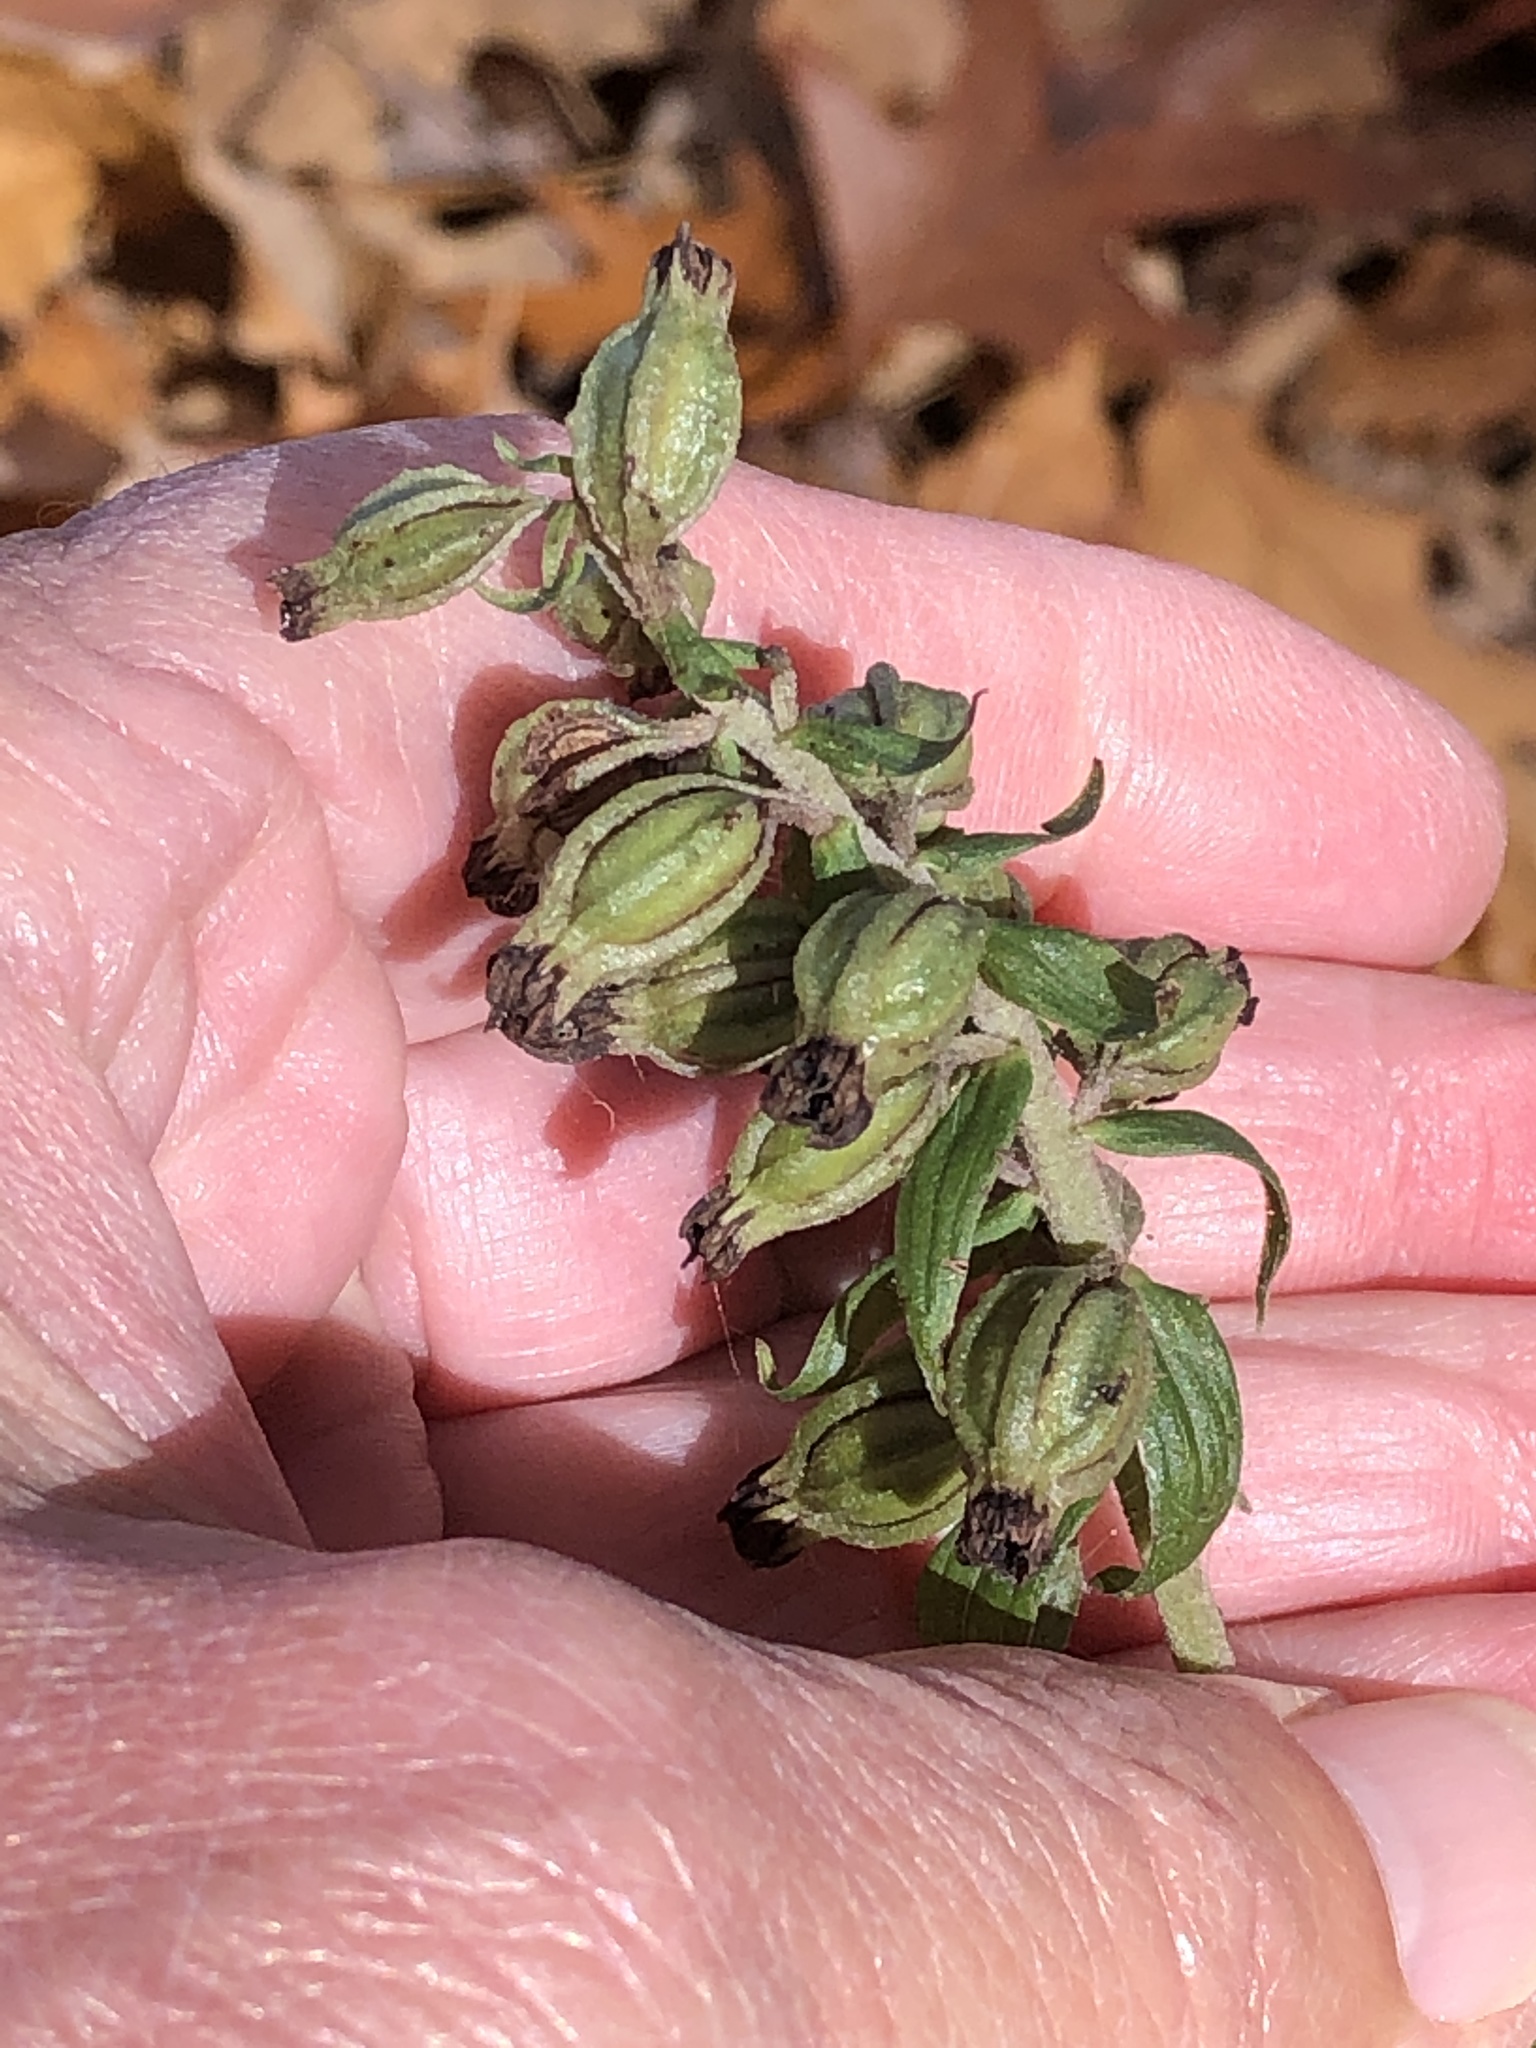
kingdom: Plantae
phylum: Tracheophyta
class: Liliopsida
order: Asparagales
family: Orchidaceae
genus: Epipactis
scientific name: Epipactis helleborine
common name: Broad-leaved helleborine
